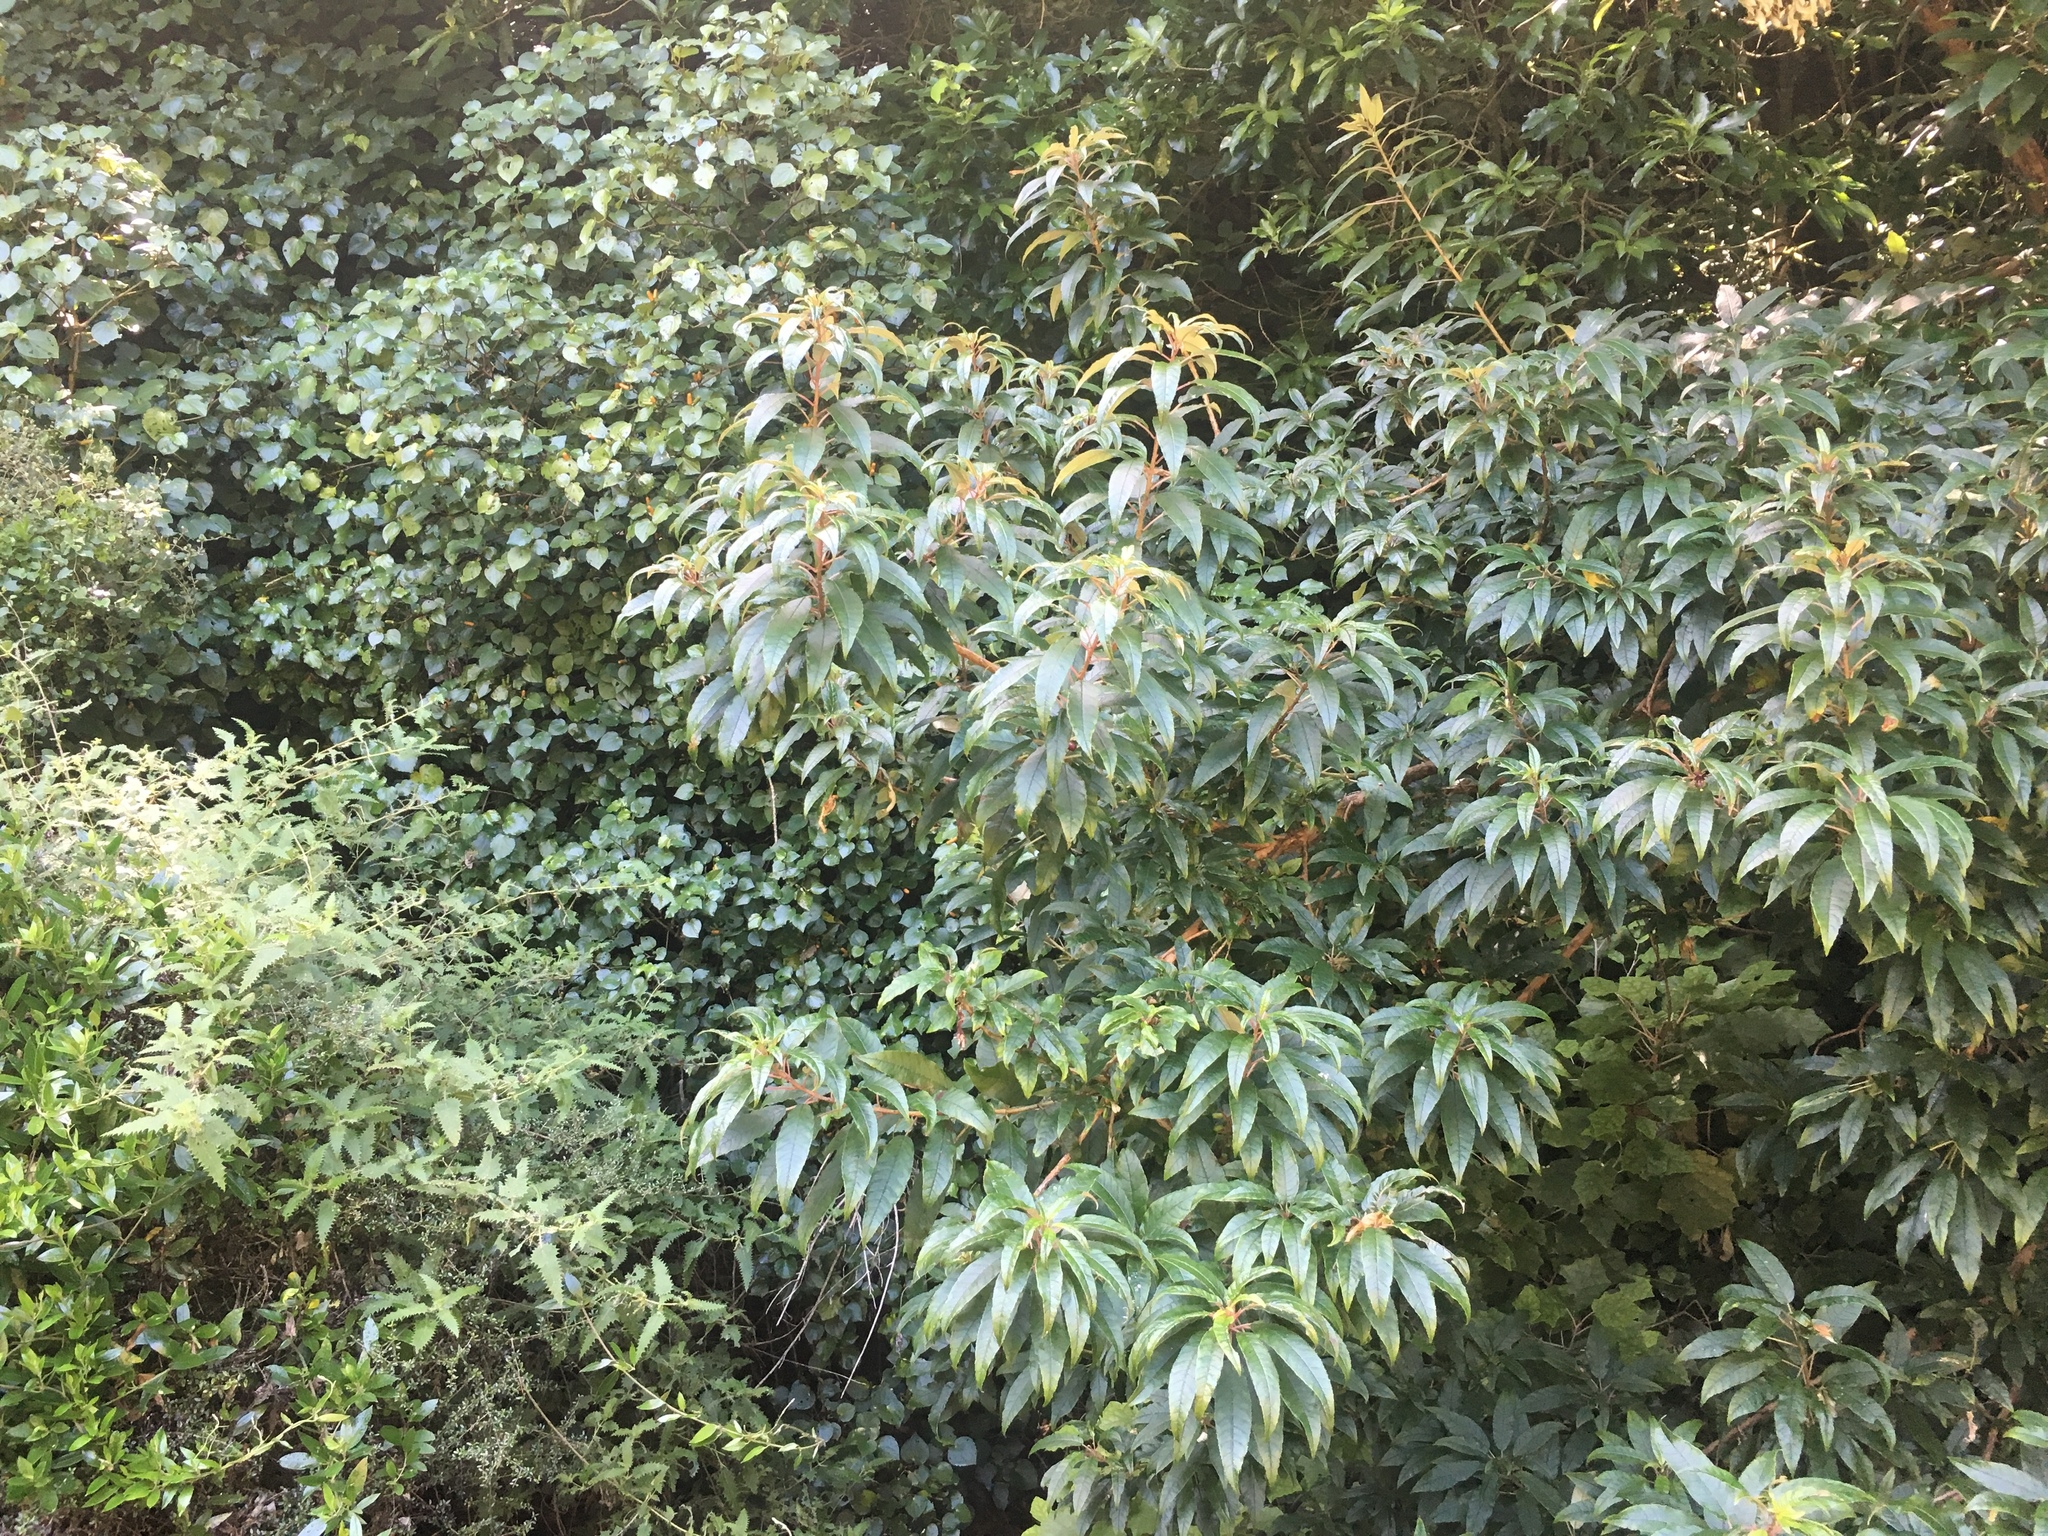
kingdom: Plantae
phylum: Tracheophyta
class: Magnoliopsida
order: Myrtales
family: Onagraceae
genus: Fuchsia
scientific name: Fuchsia excorticata
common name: Tree fuchsia
